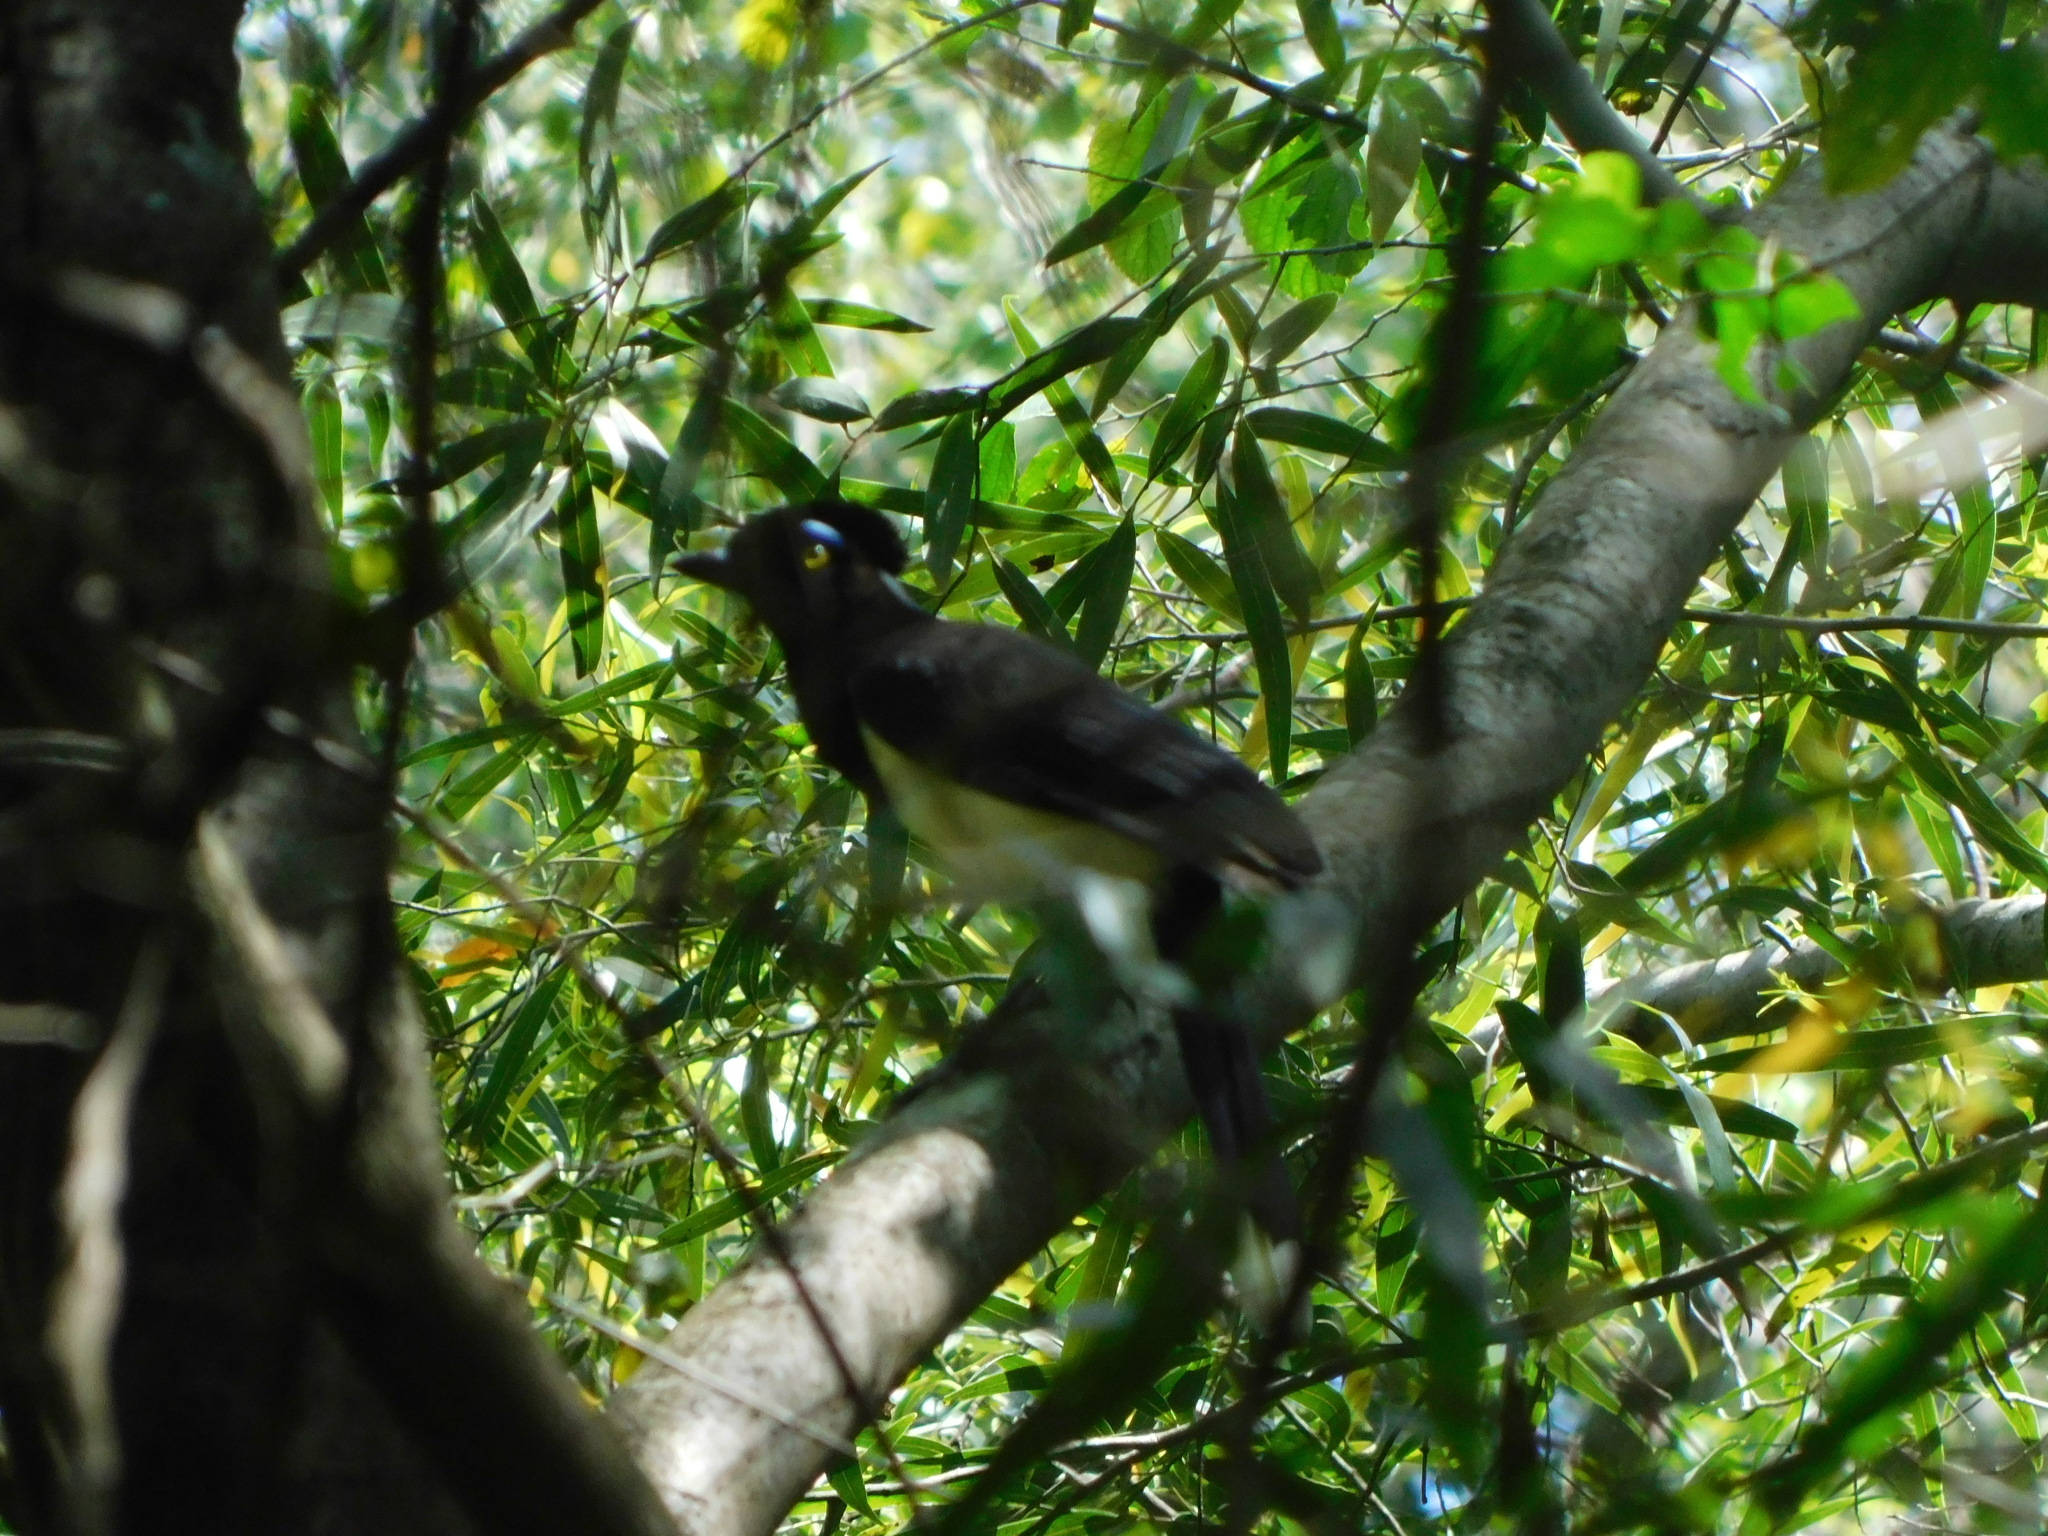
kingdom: Animalia
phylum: Chordata
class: Aves
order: Passeriformes
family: Corvidae
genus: Cyanocorax
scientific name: Cyanocorax chrysops
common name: Plush-crested jay
